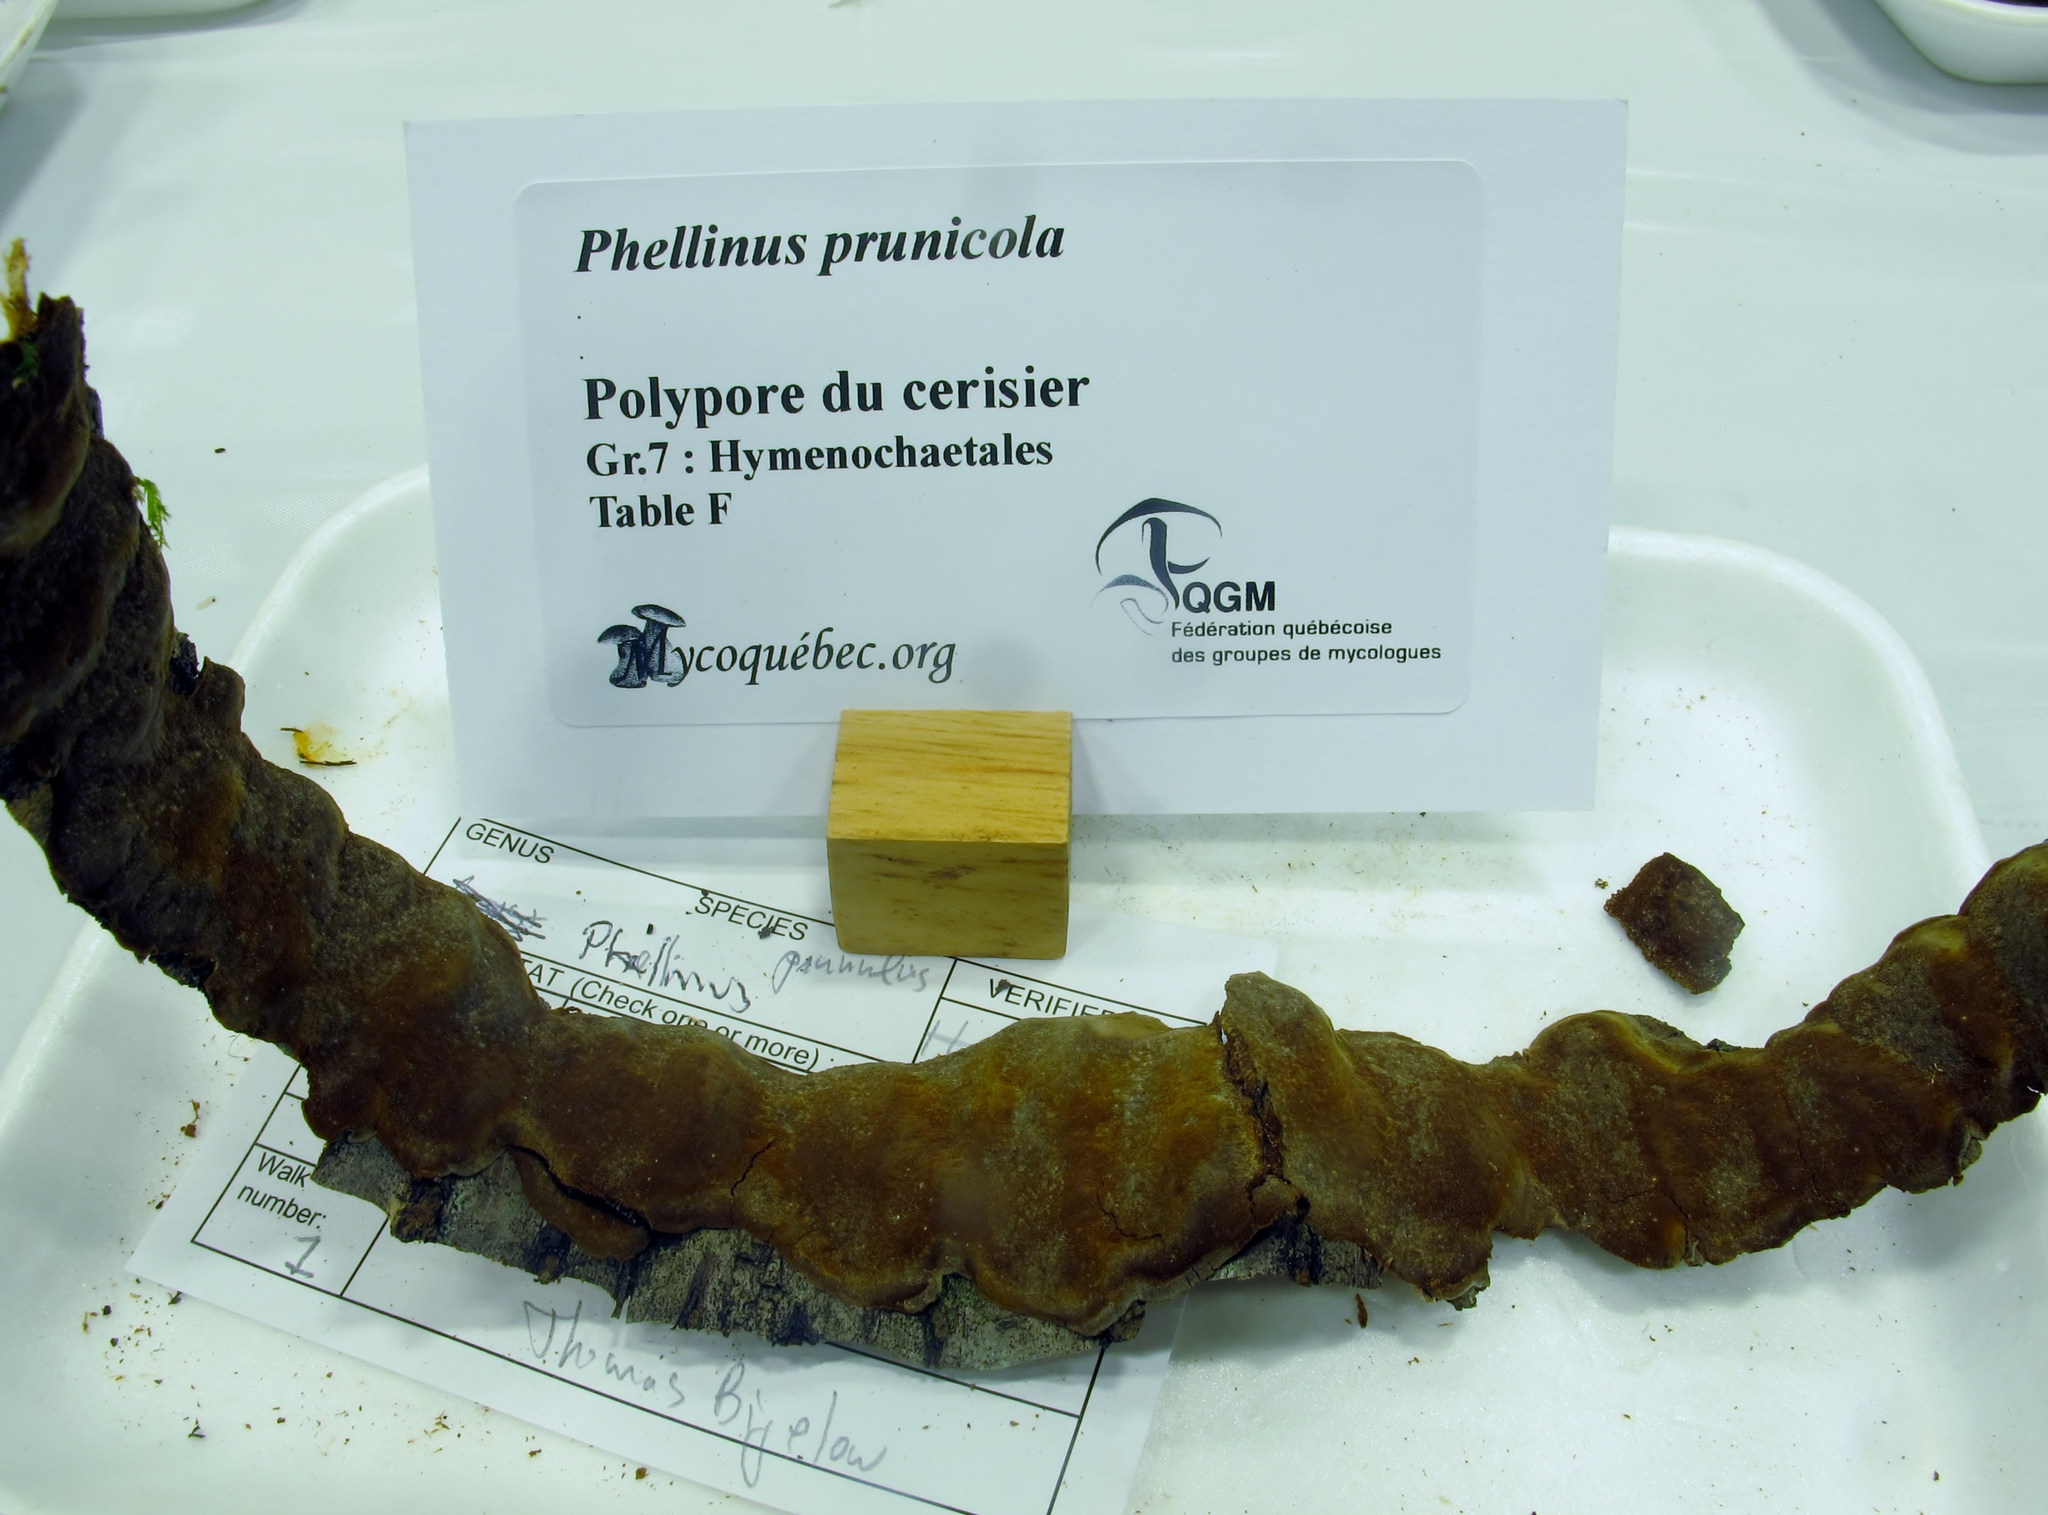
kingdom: Fungi
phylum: Basidiomycota
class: Agaricomycetes
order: Hymenochaetales
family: Hymenochaetaceae
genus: Phellinus
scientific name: Phellinus prunicola
